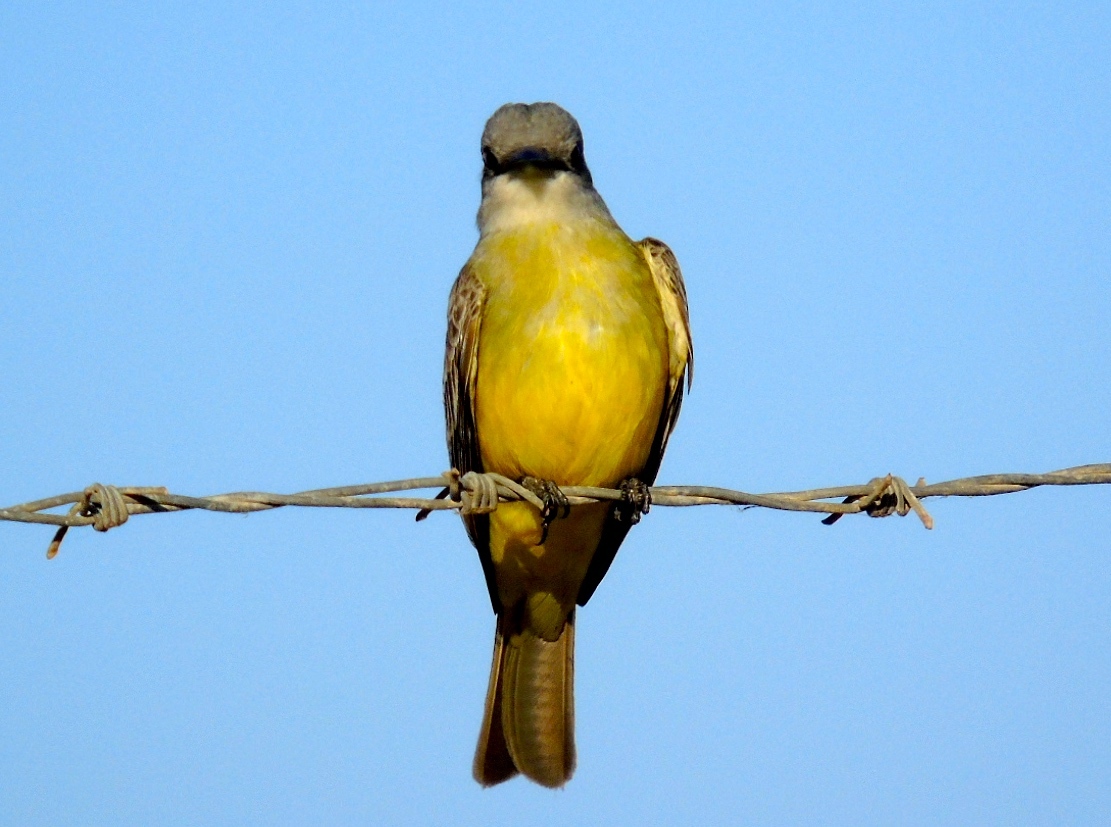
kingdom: Animalia
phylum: Chordata
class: Aves
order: Passeriformes
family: Tyrannidae
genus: Tyrannus
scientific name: Tyrannus melancholicus
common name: Tropical kingbird
